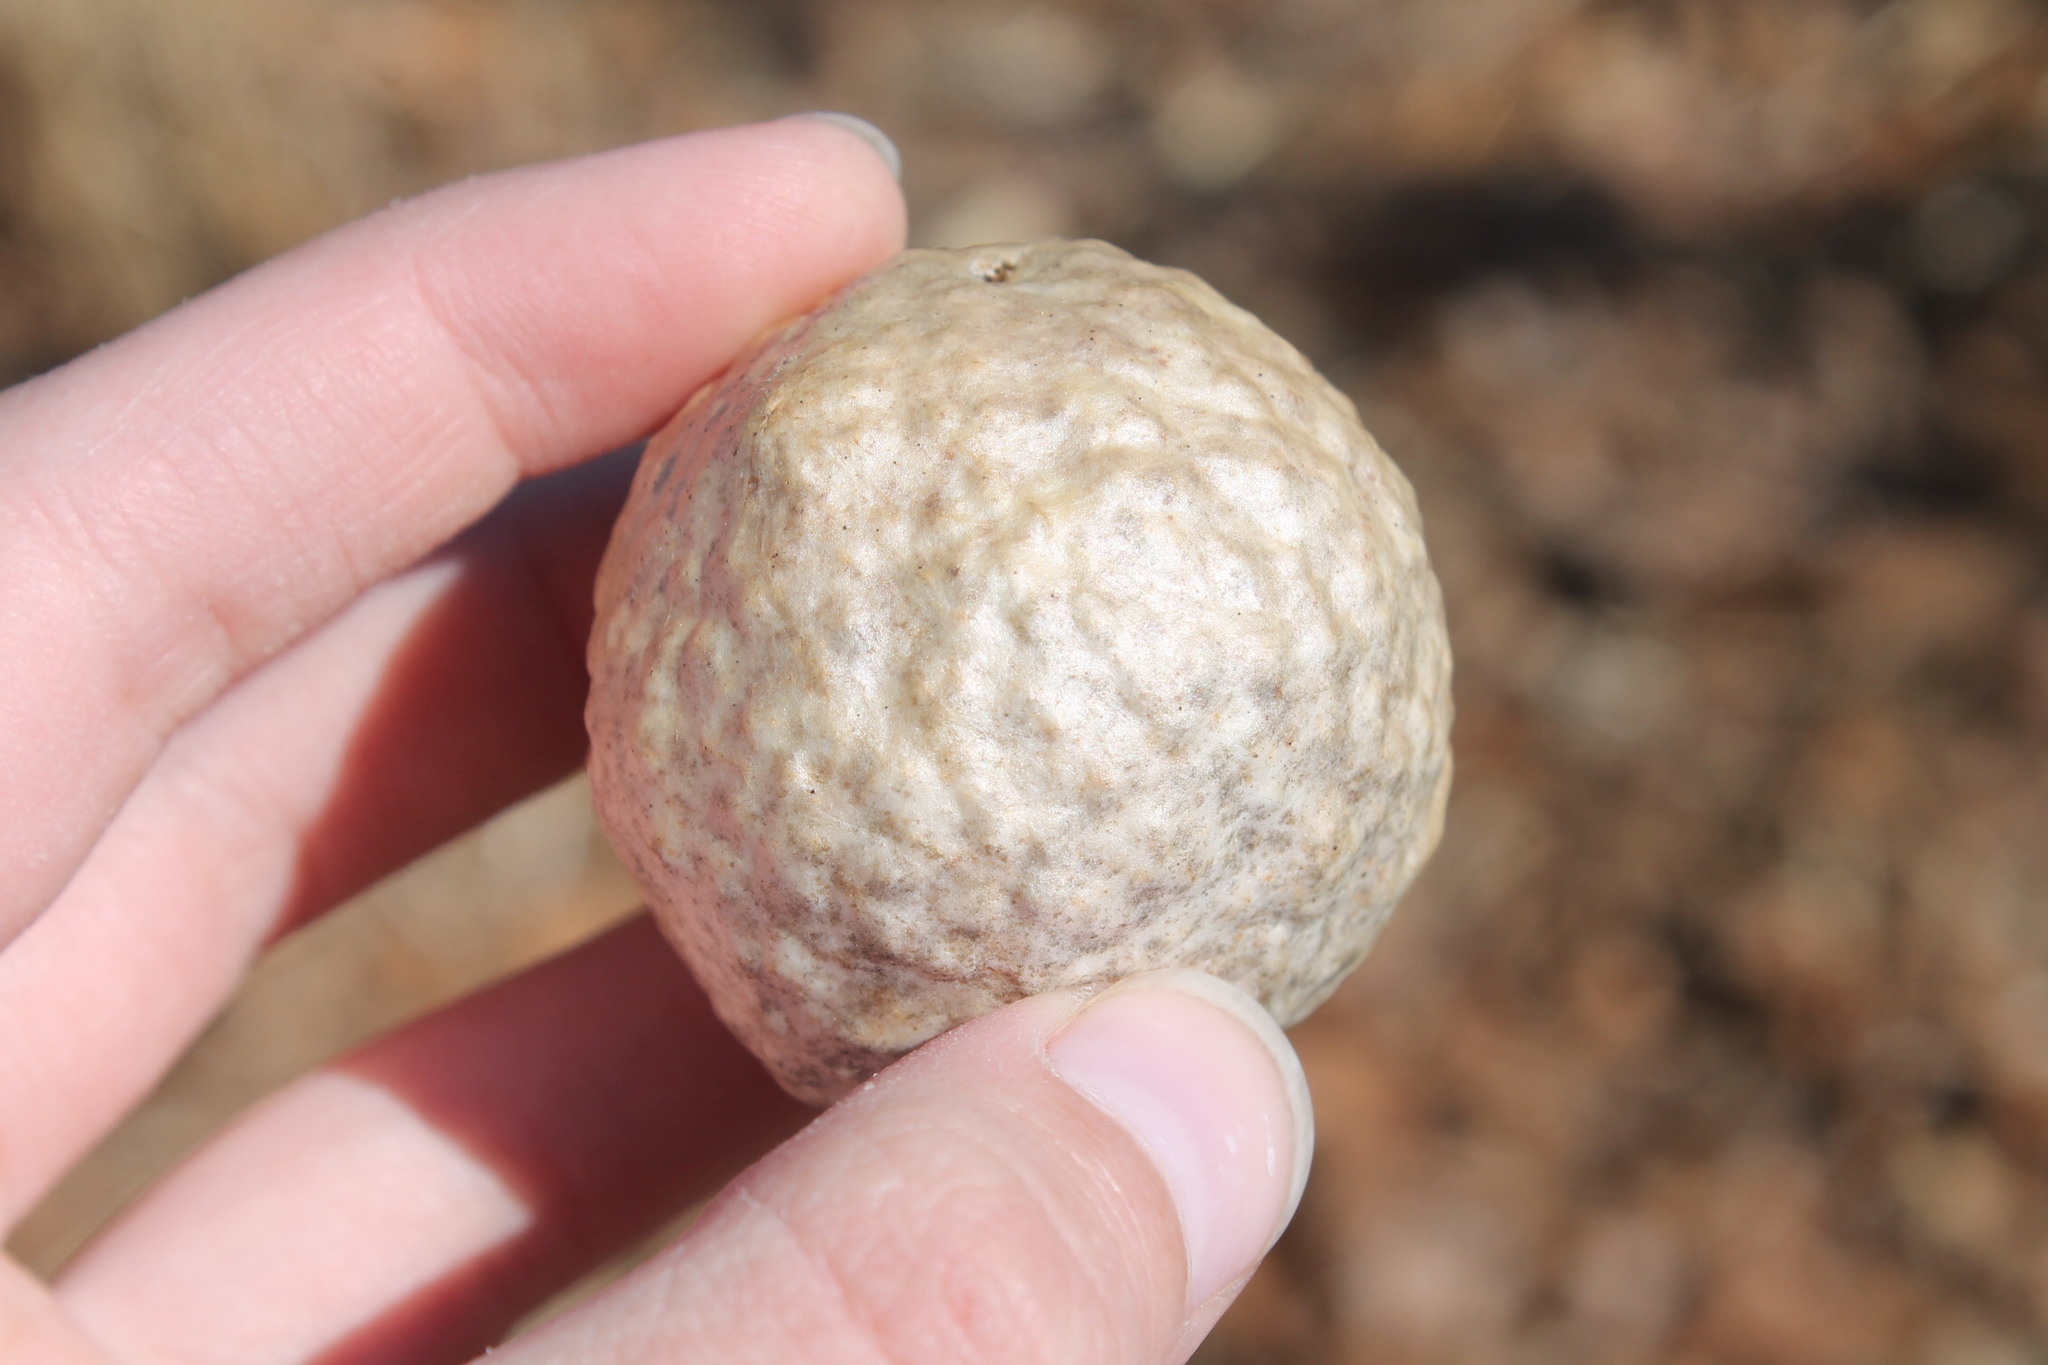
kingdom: Animalia
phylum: Arthropoda
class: Insecta
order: Hymenoptera
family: Cynipidae
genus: Amphibolips
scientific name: Amphibolips
